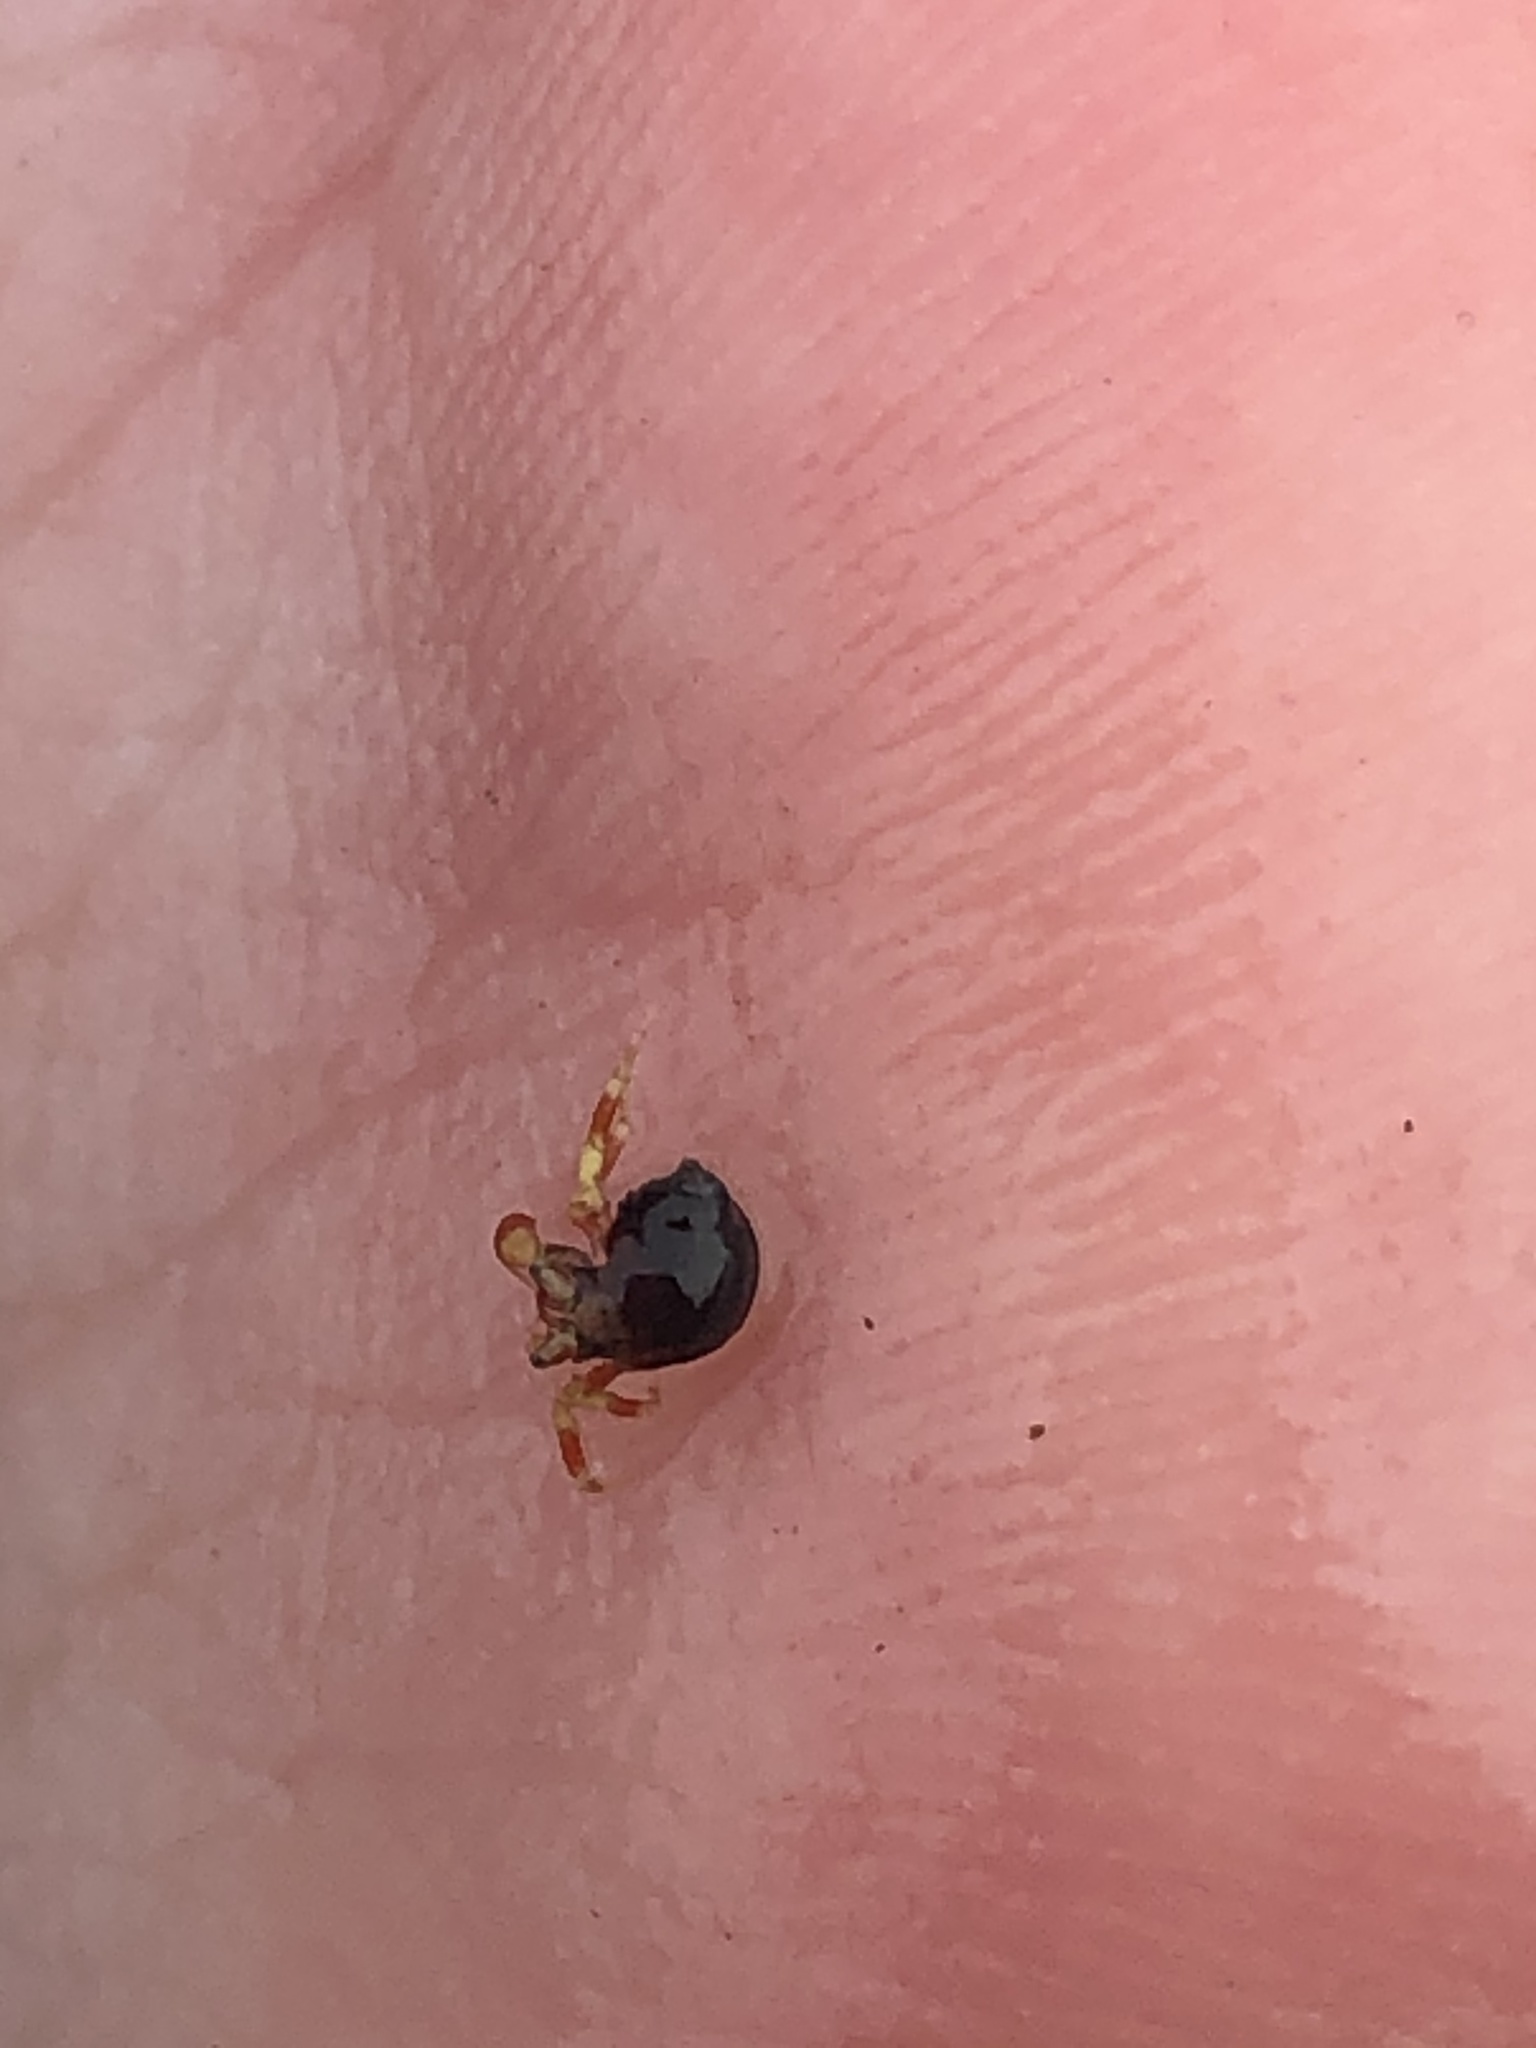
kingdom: Animalia
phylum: Arthropoda
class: Malacostraca
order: Decapoda
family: Paguridae
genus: Pagurus
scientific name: Pagurus hirsutiusculus
